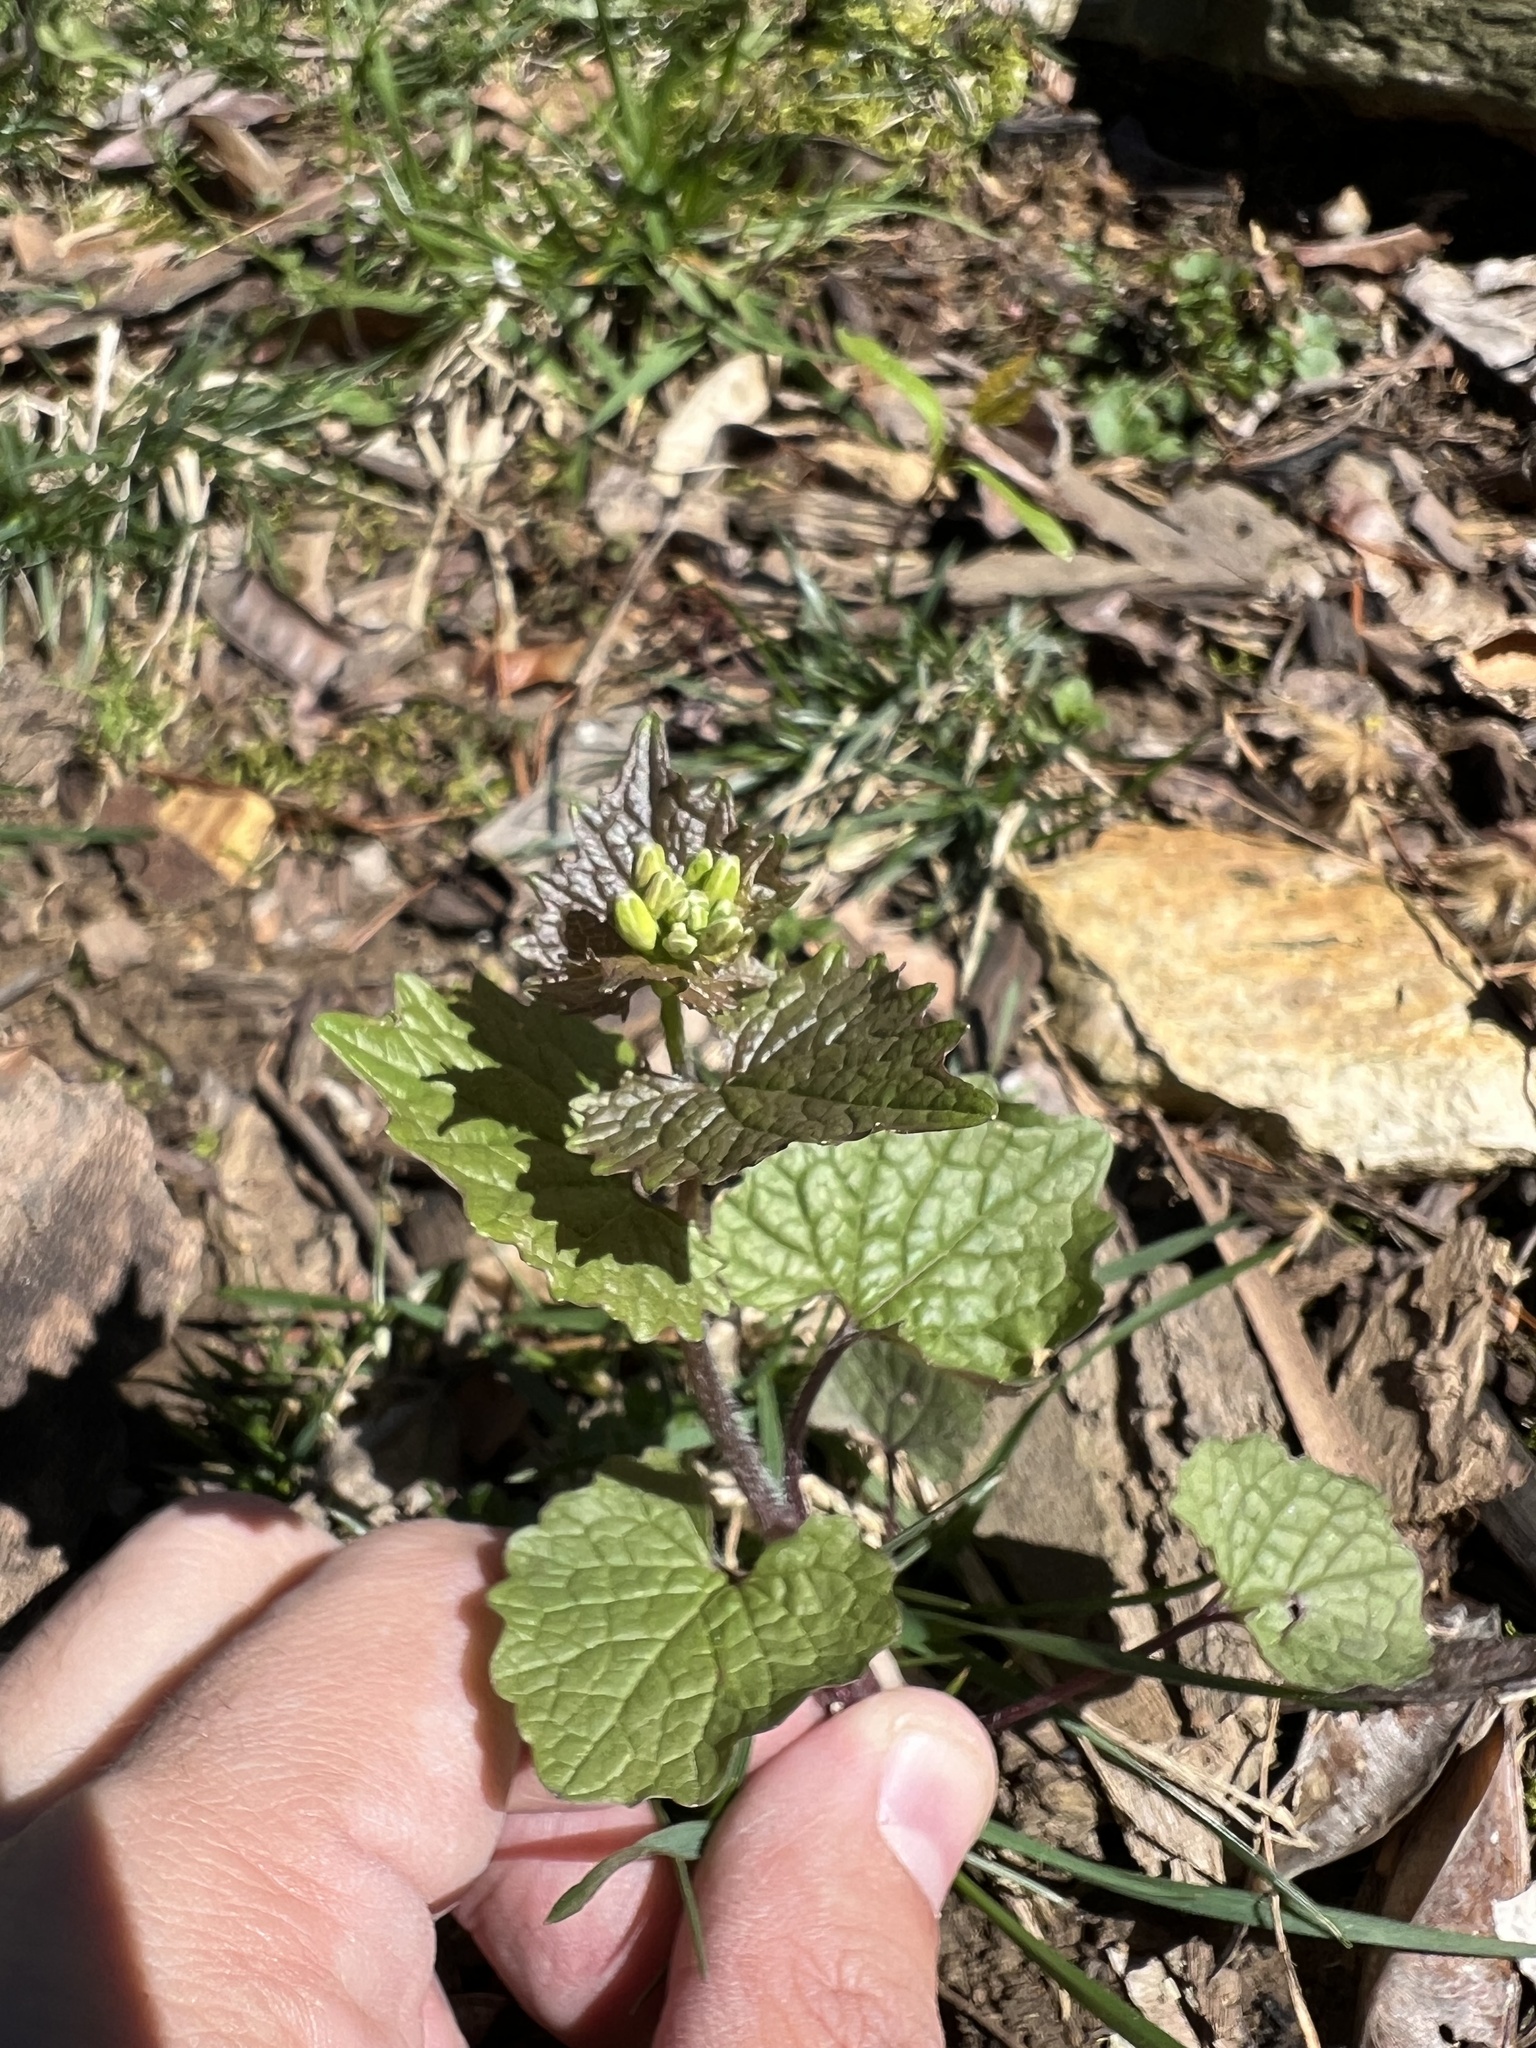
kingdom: Plantae
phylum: Tracheophyta
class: Magnoliopsida
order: Brassicales
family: Brassicaceae
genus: Alliaria
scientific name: Alliaria petiolata
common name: Garlic mustard
